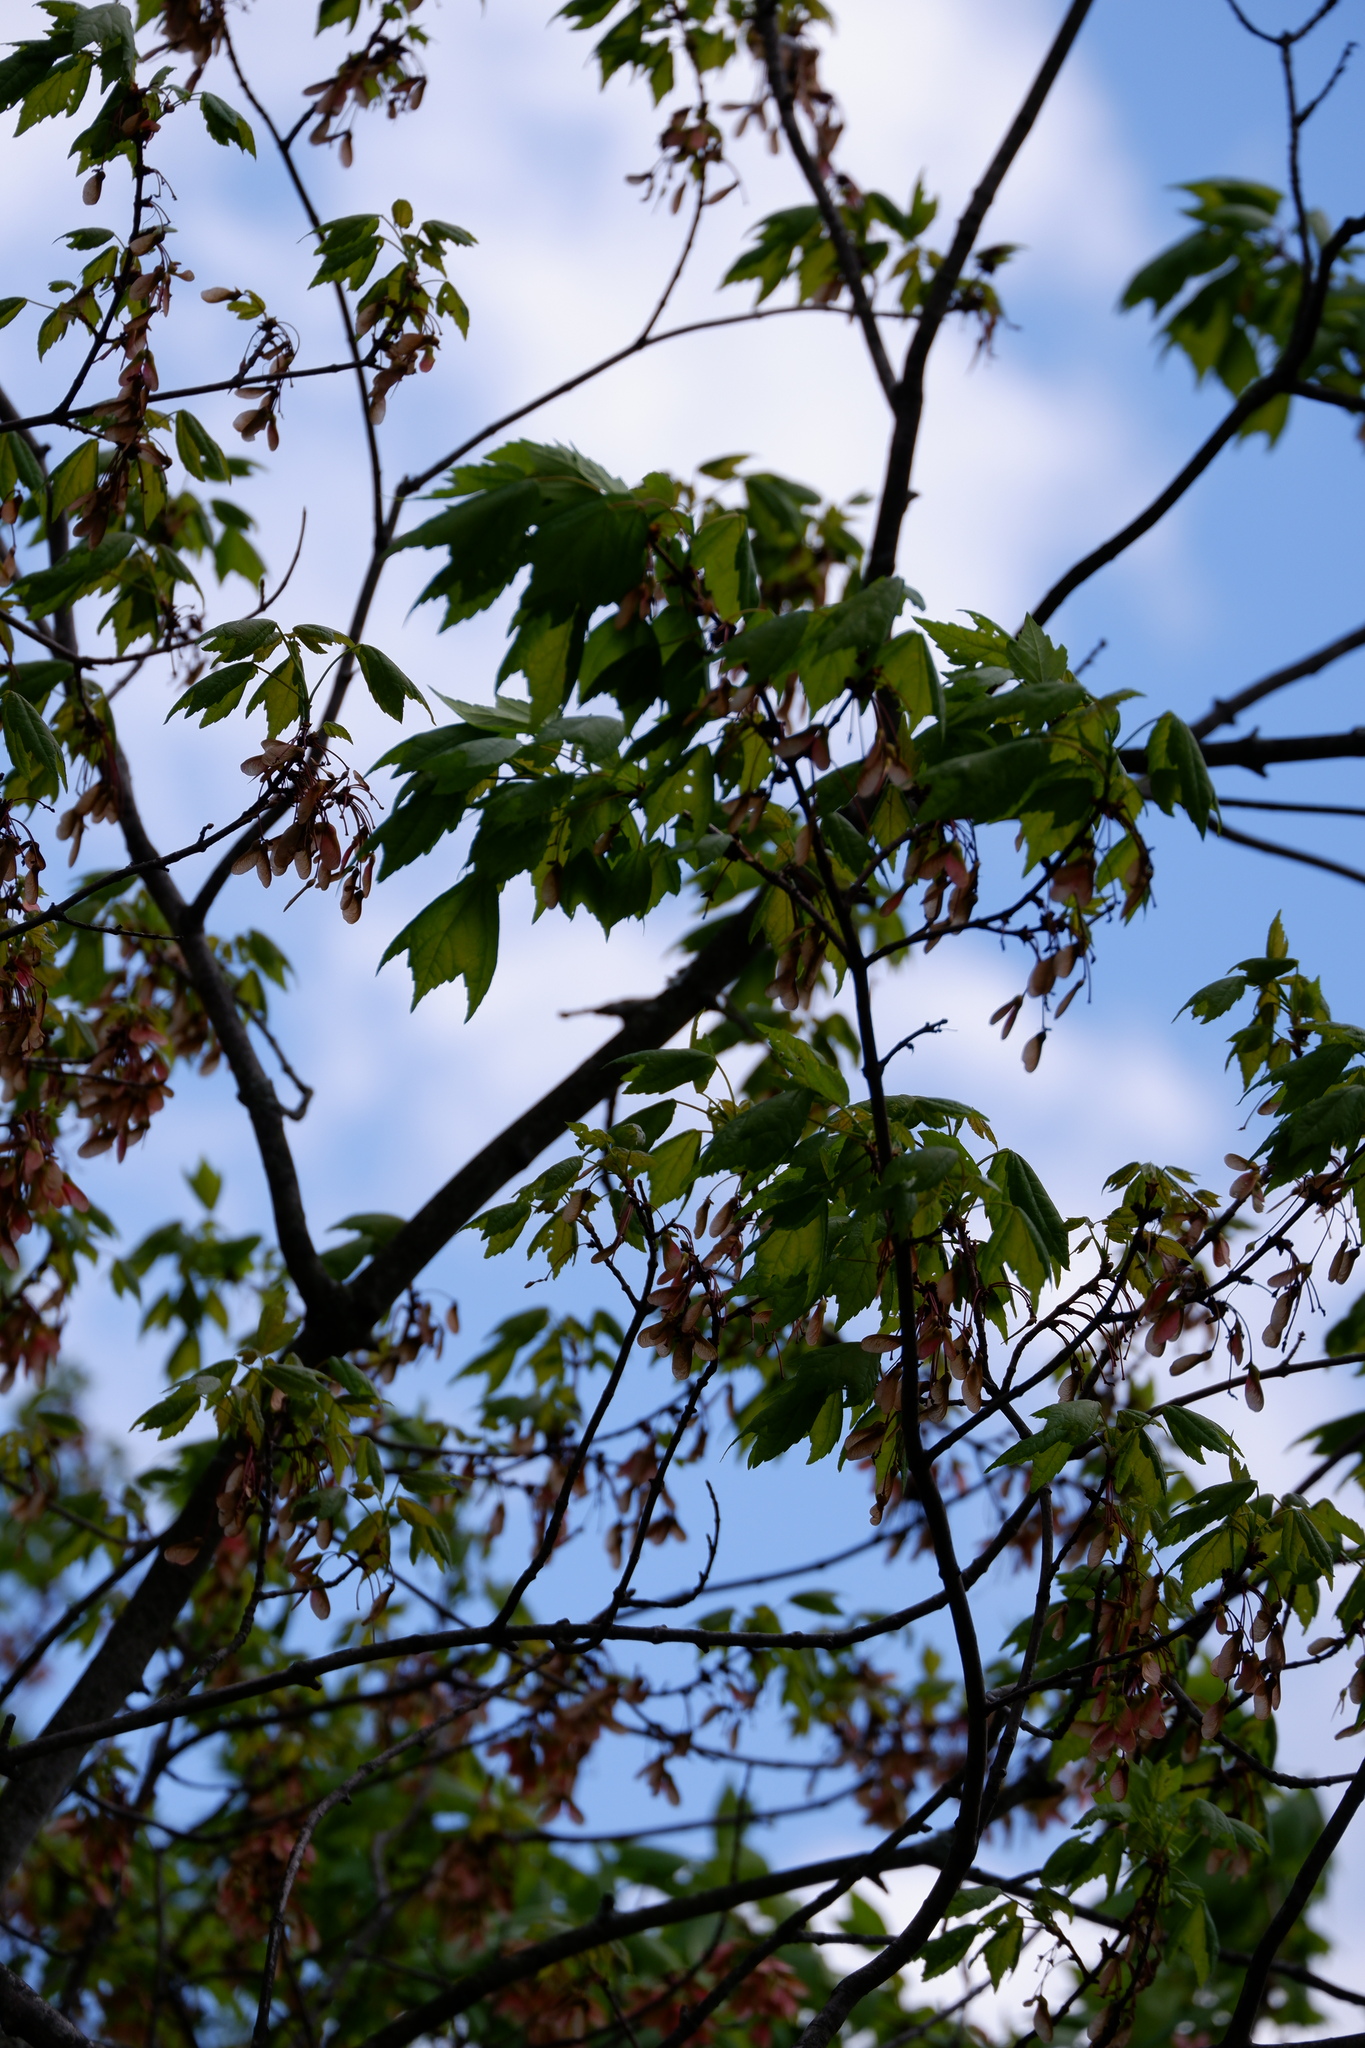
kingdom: Plantae
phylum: Tracheophyta
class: Magnoliopsida
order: Sapindales
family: Sapindaceae
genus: Acer
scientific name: Acer rubrum
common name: Red maple
